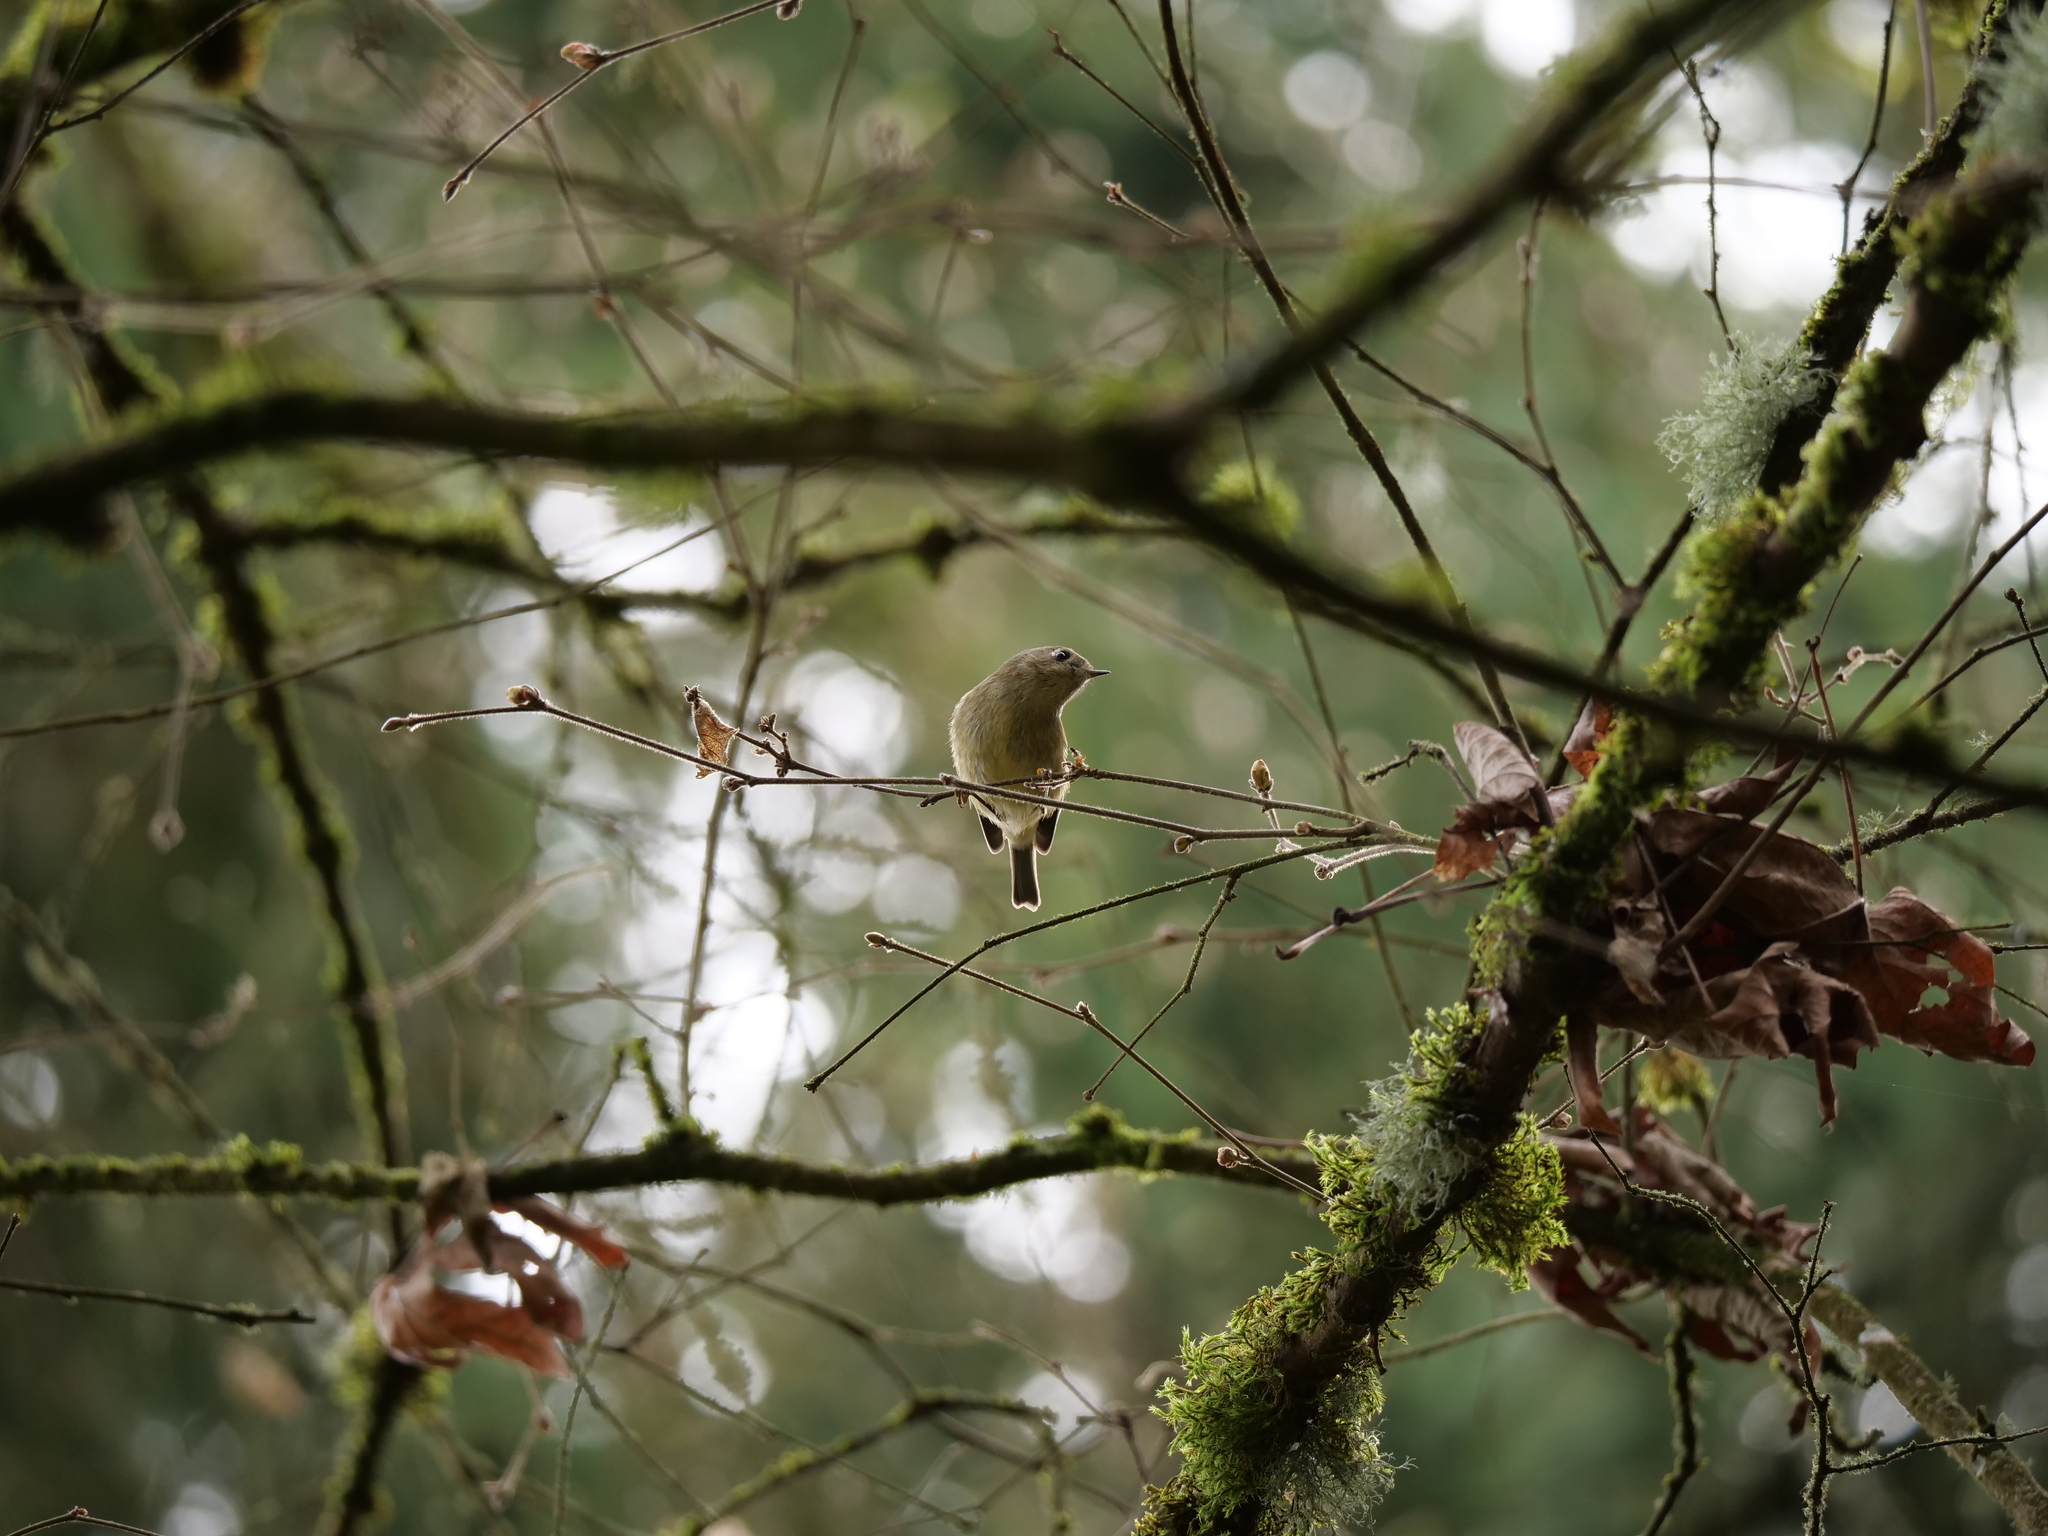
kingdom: Animalia
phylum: Chordata
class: Aves
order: Passeriformes
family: Regulidae
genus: Regulus
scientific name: Regulus calendula
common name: Ruby-crowned kinglet
